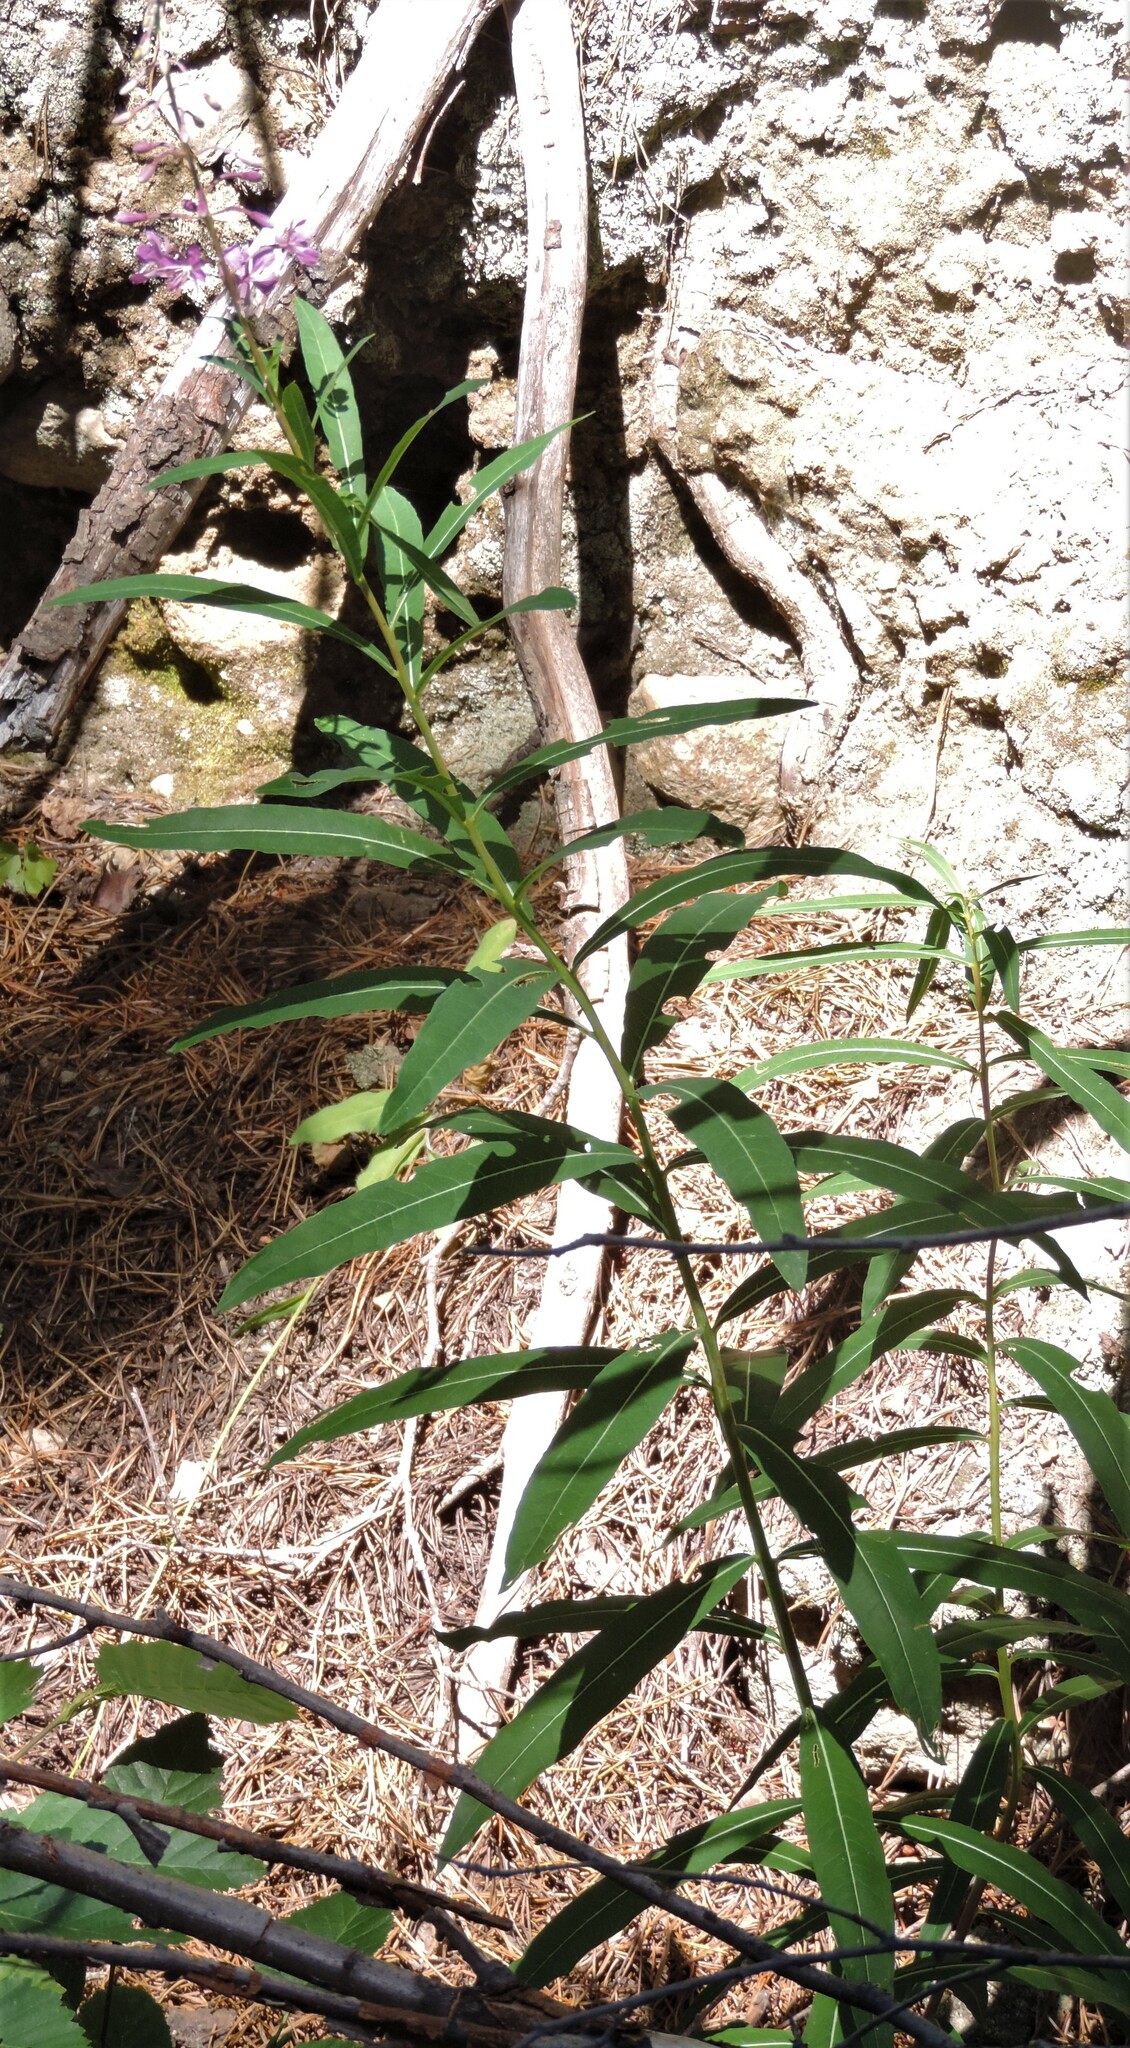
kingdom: Plantae
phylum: Tracheophyta
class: Magnoliopsida
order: Myrtales
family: Onagraceae
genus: Chamaenerion
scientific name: Chamaenerion angustifolium
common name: Fireweed
